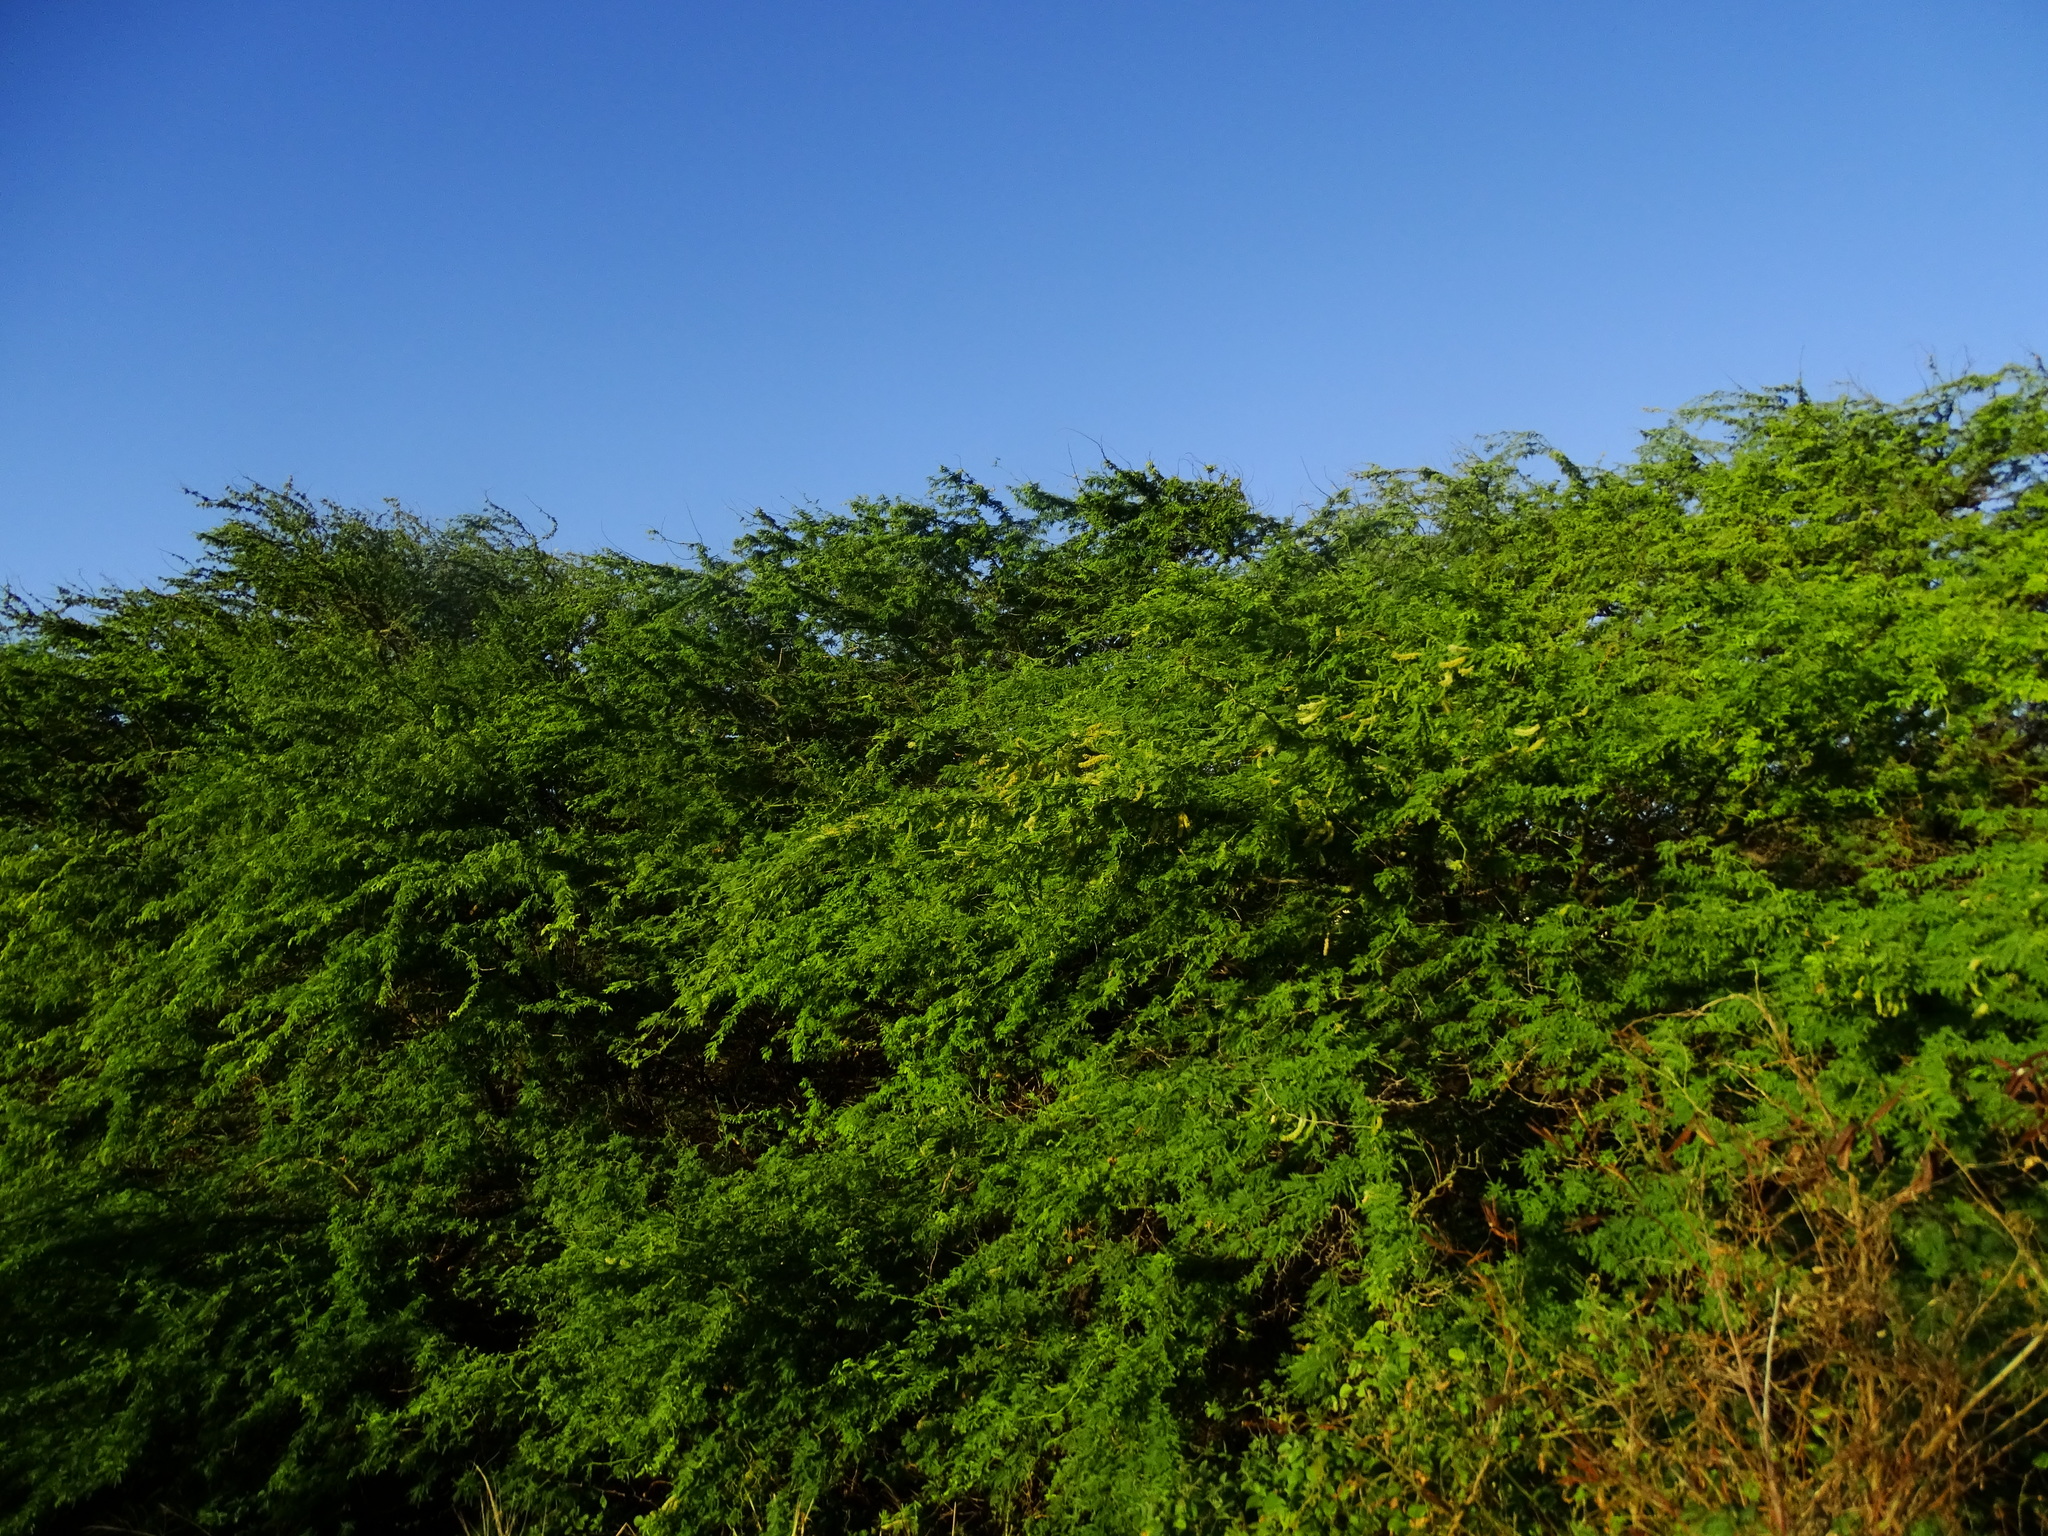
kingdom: Plantae
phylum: Tracheophyta
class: Magnoliopsida
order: Fabales
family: Fabaceae
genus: Prosopis
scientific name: Prosopis pallida
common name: Mesquite
